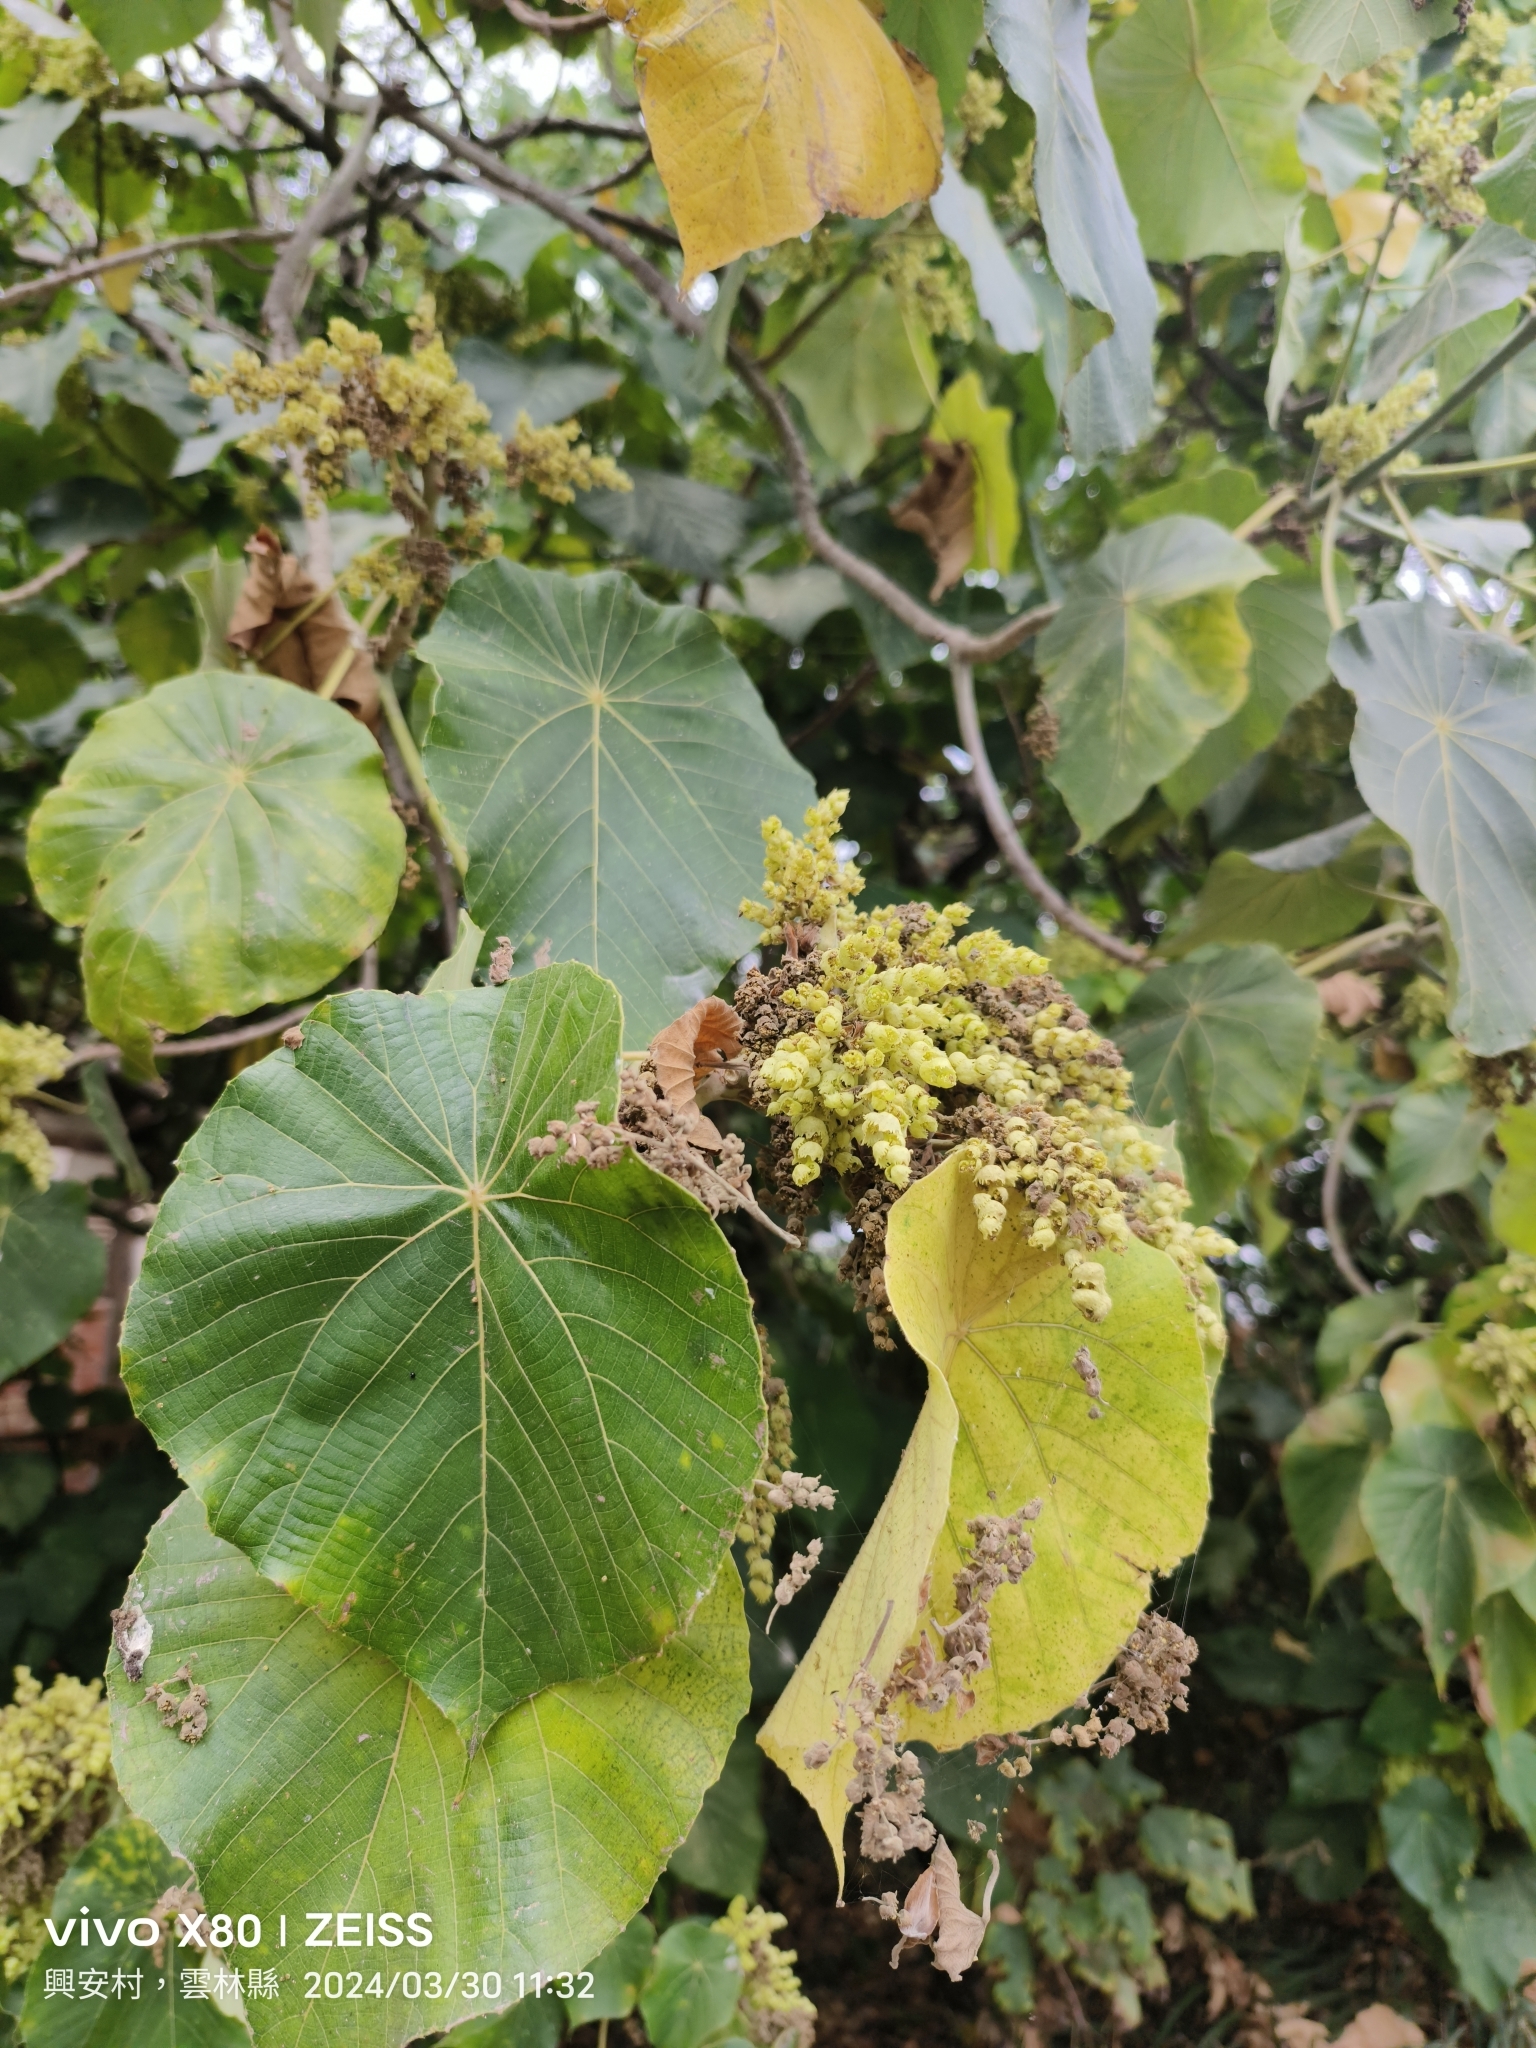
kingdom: Plantae
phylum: Tracheophyta
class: Magnoliopsida
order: Malpighiales
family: Euphorbiaceae
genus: Macaranga
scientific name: Macaranga tanarius
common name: Parasol leaf tree
